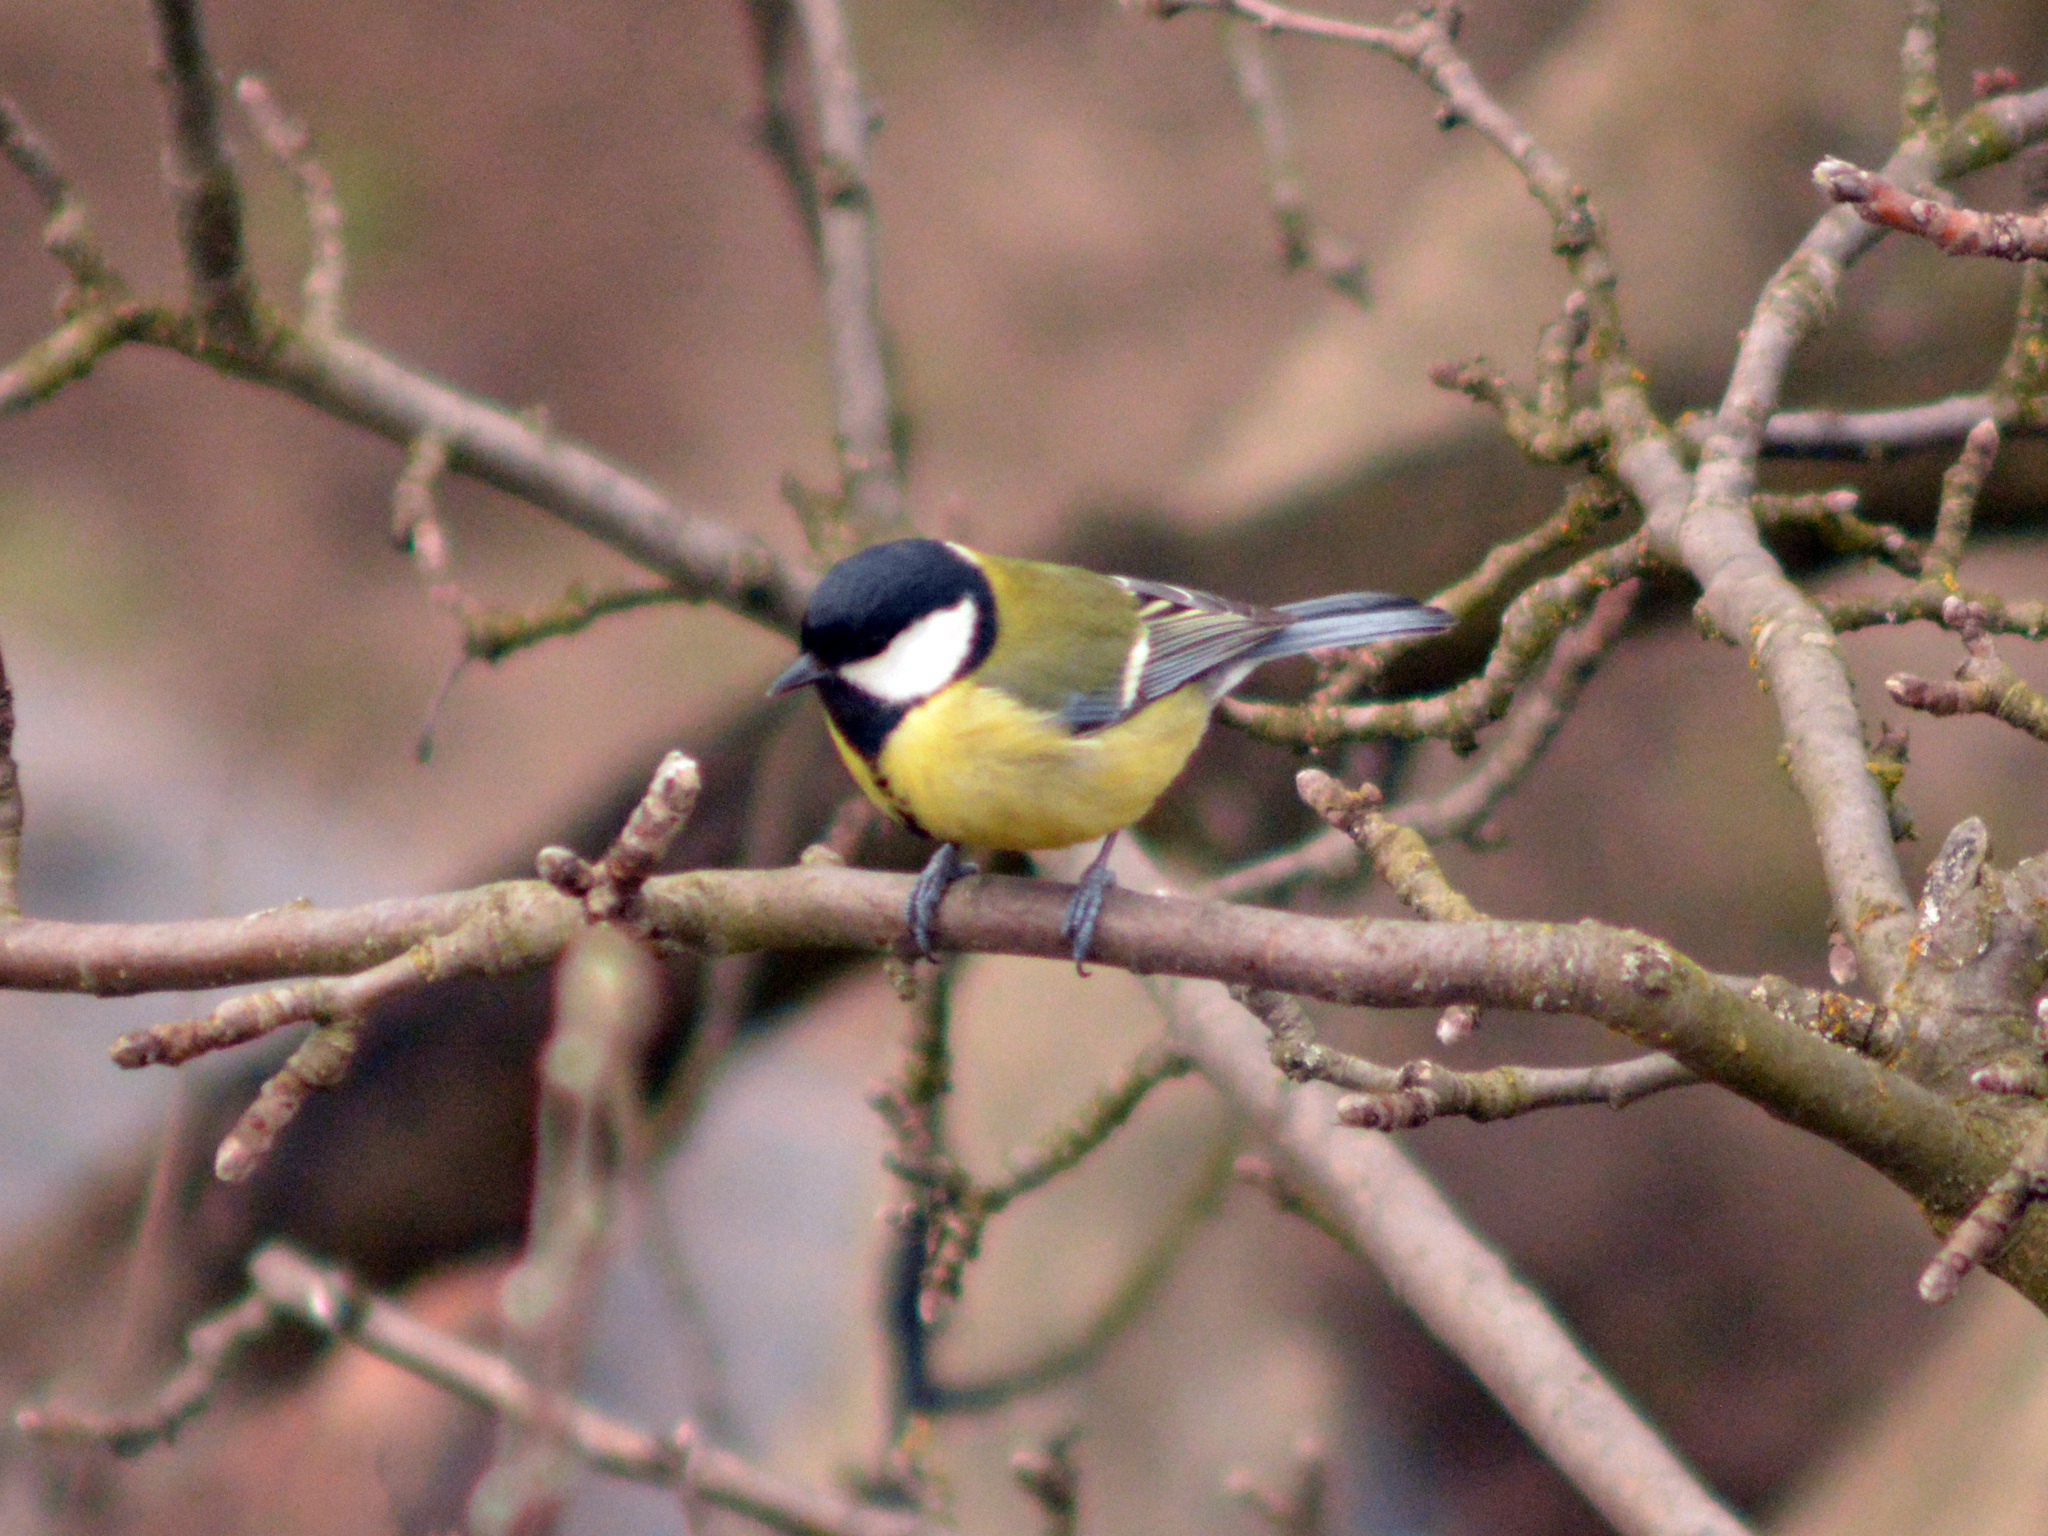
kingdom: Animalia
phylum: Chordata
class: Aves
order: Passeriformes
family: Paridae
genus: Parus
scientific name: Parus major
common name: Great tit
